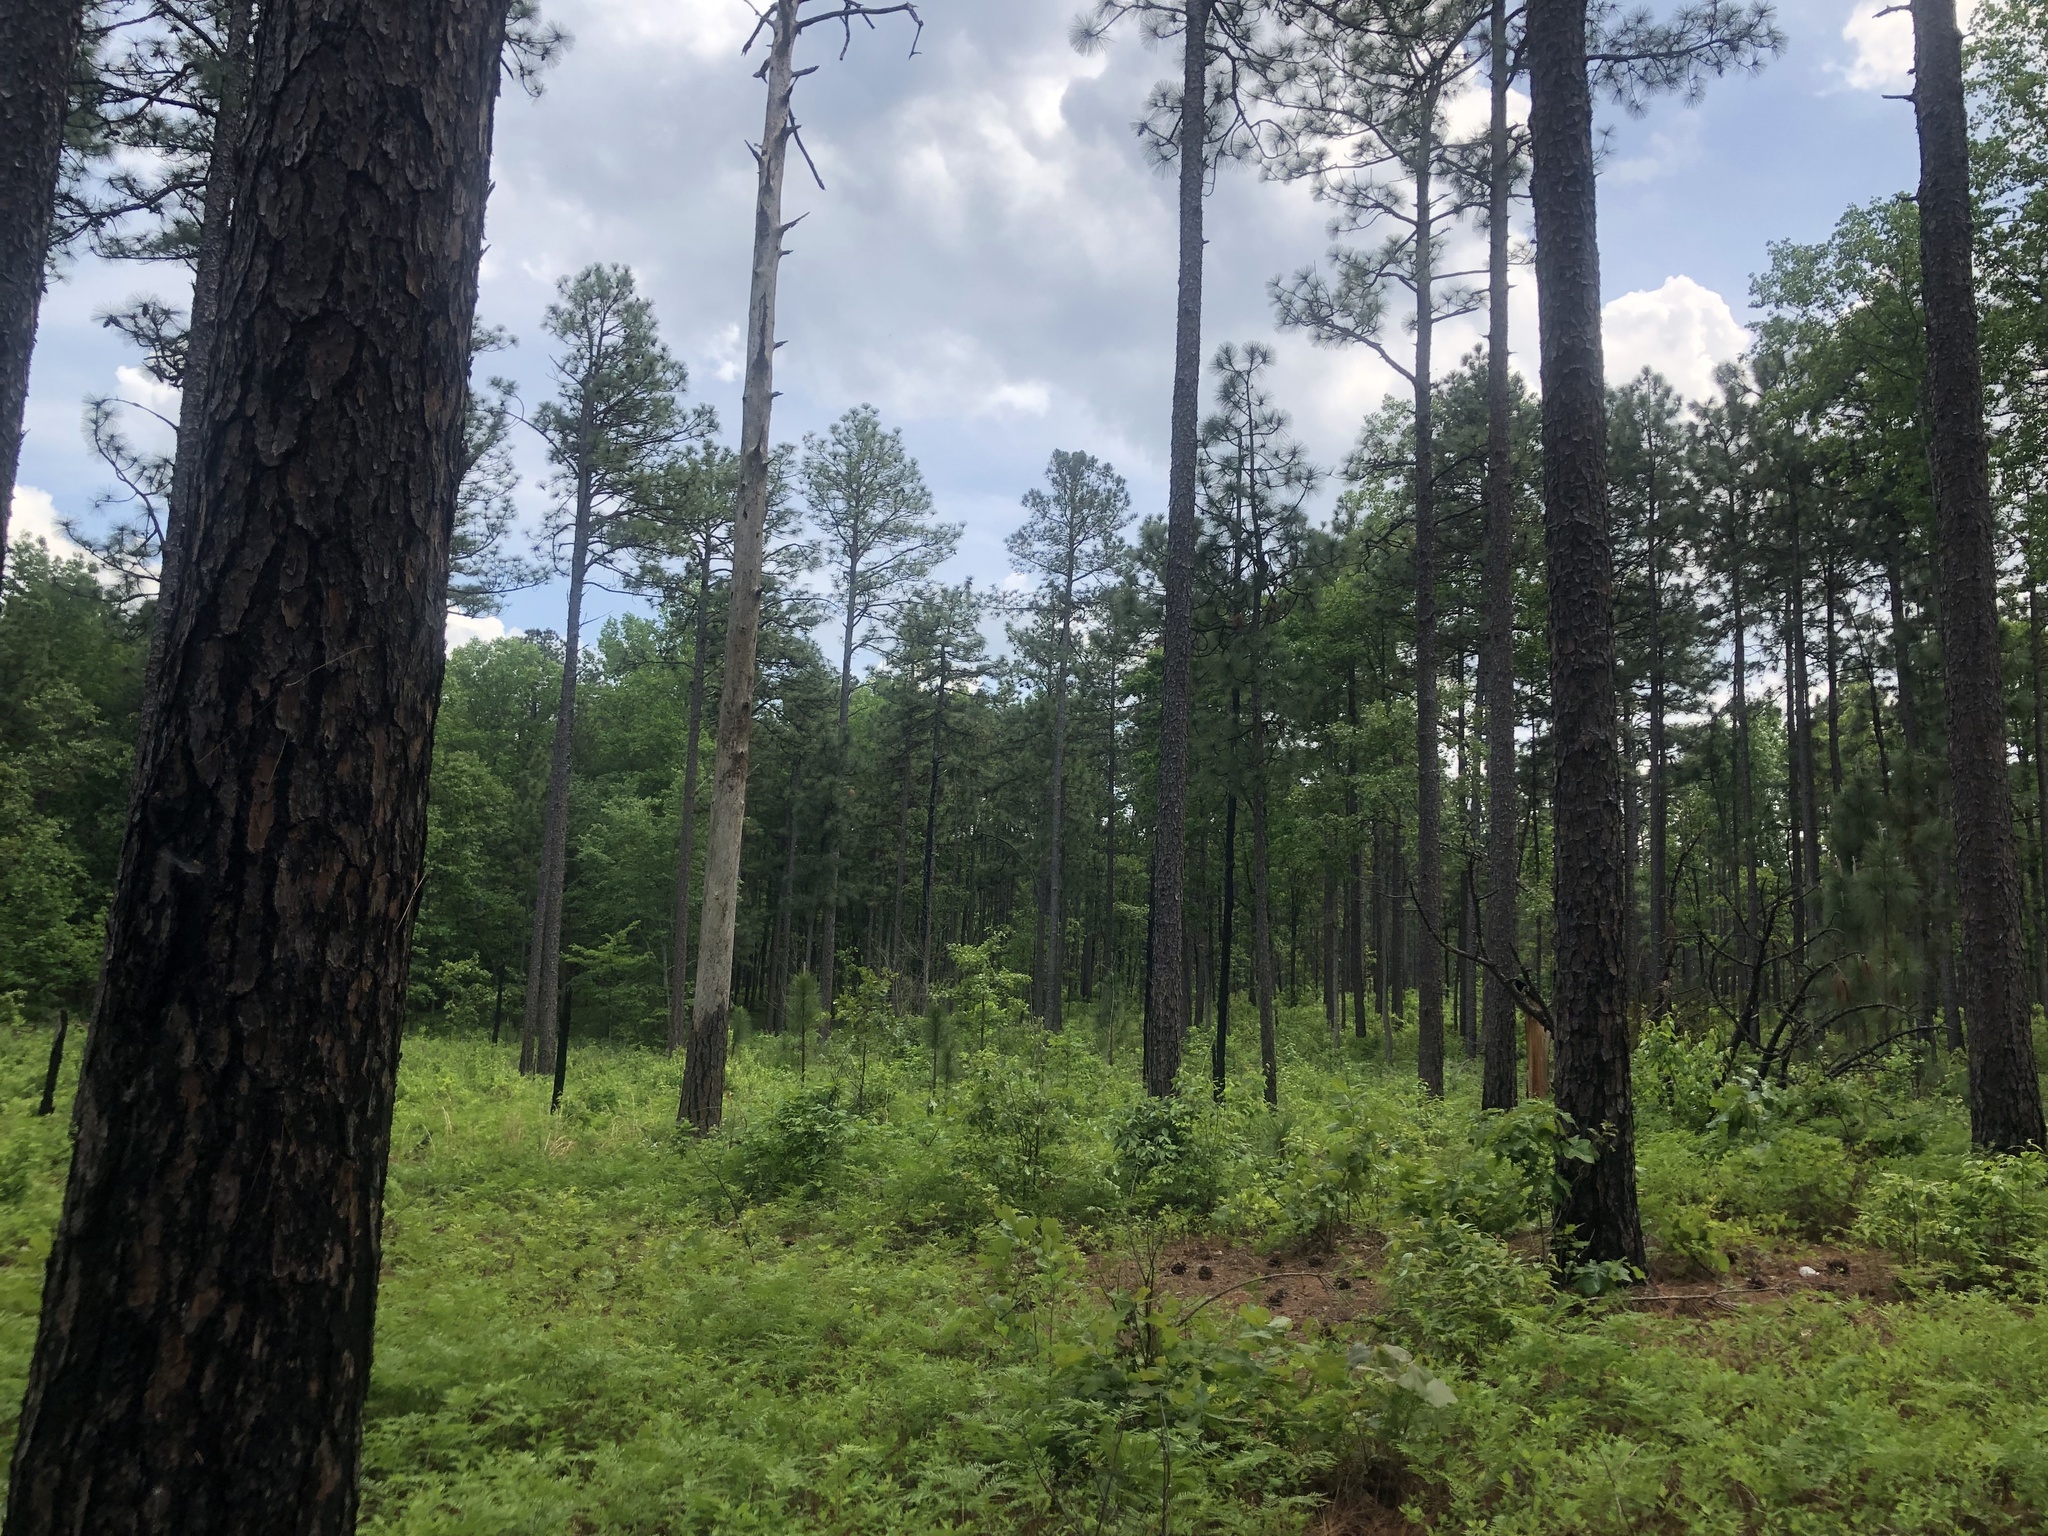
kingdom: Plantae
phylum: Tracheophyta
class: Pinopsida
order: Pinales
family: Pinaceae
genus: Pinus
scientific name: Pinus palustris
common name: Longleaf pine
